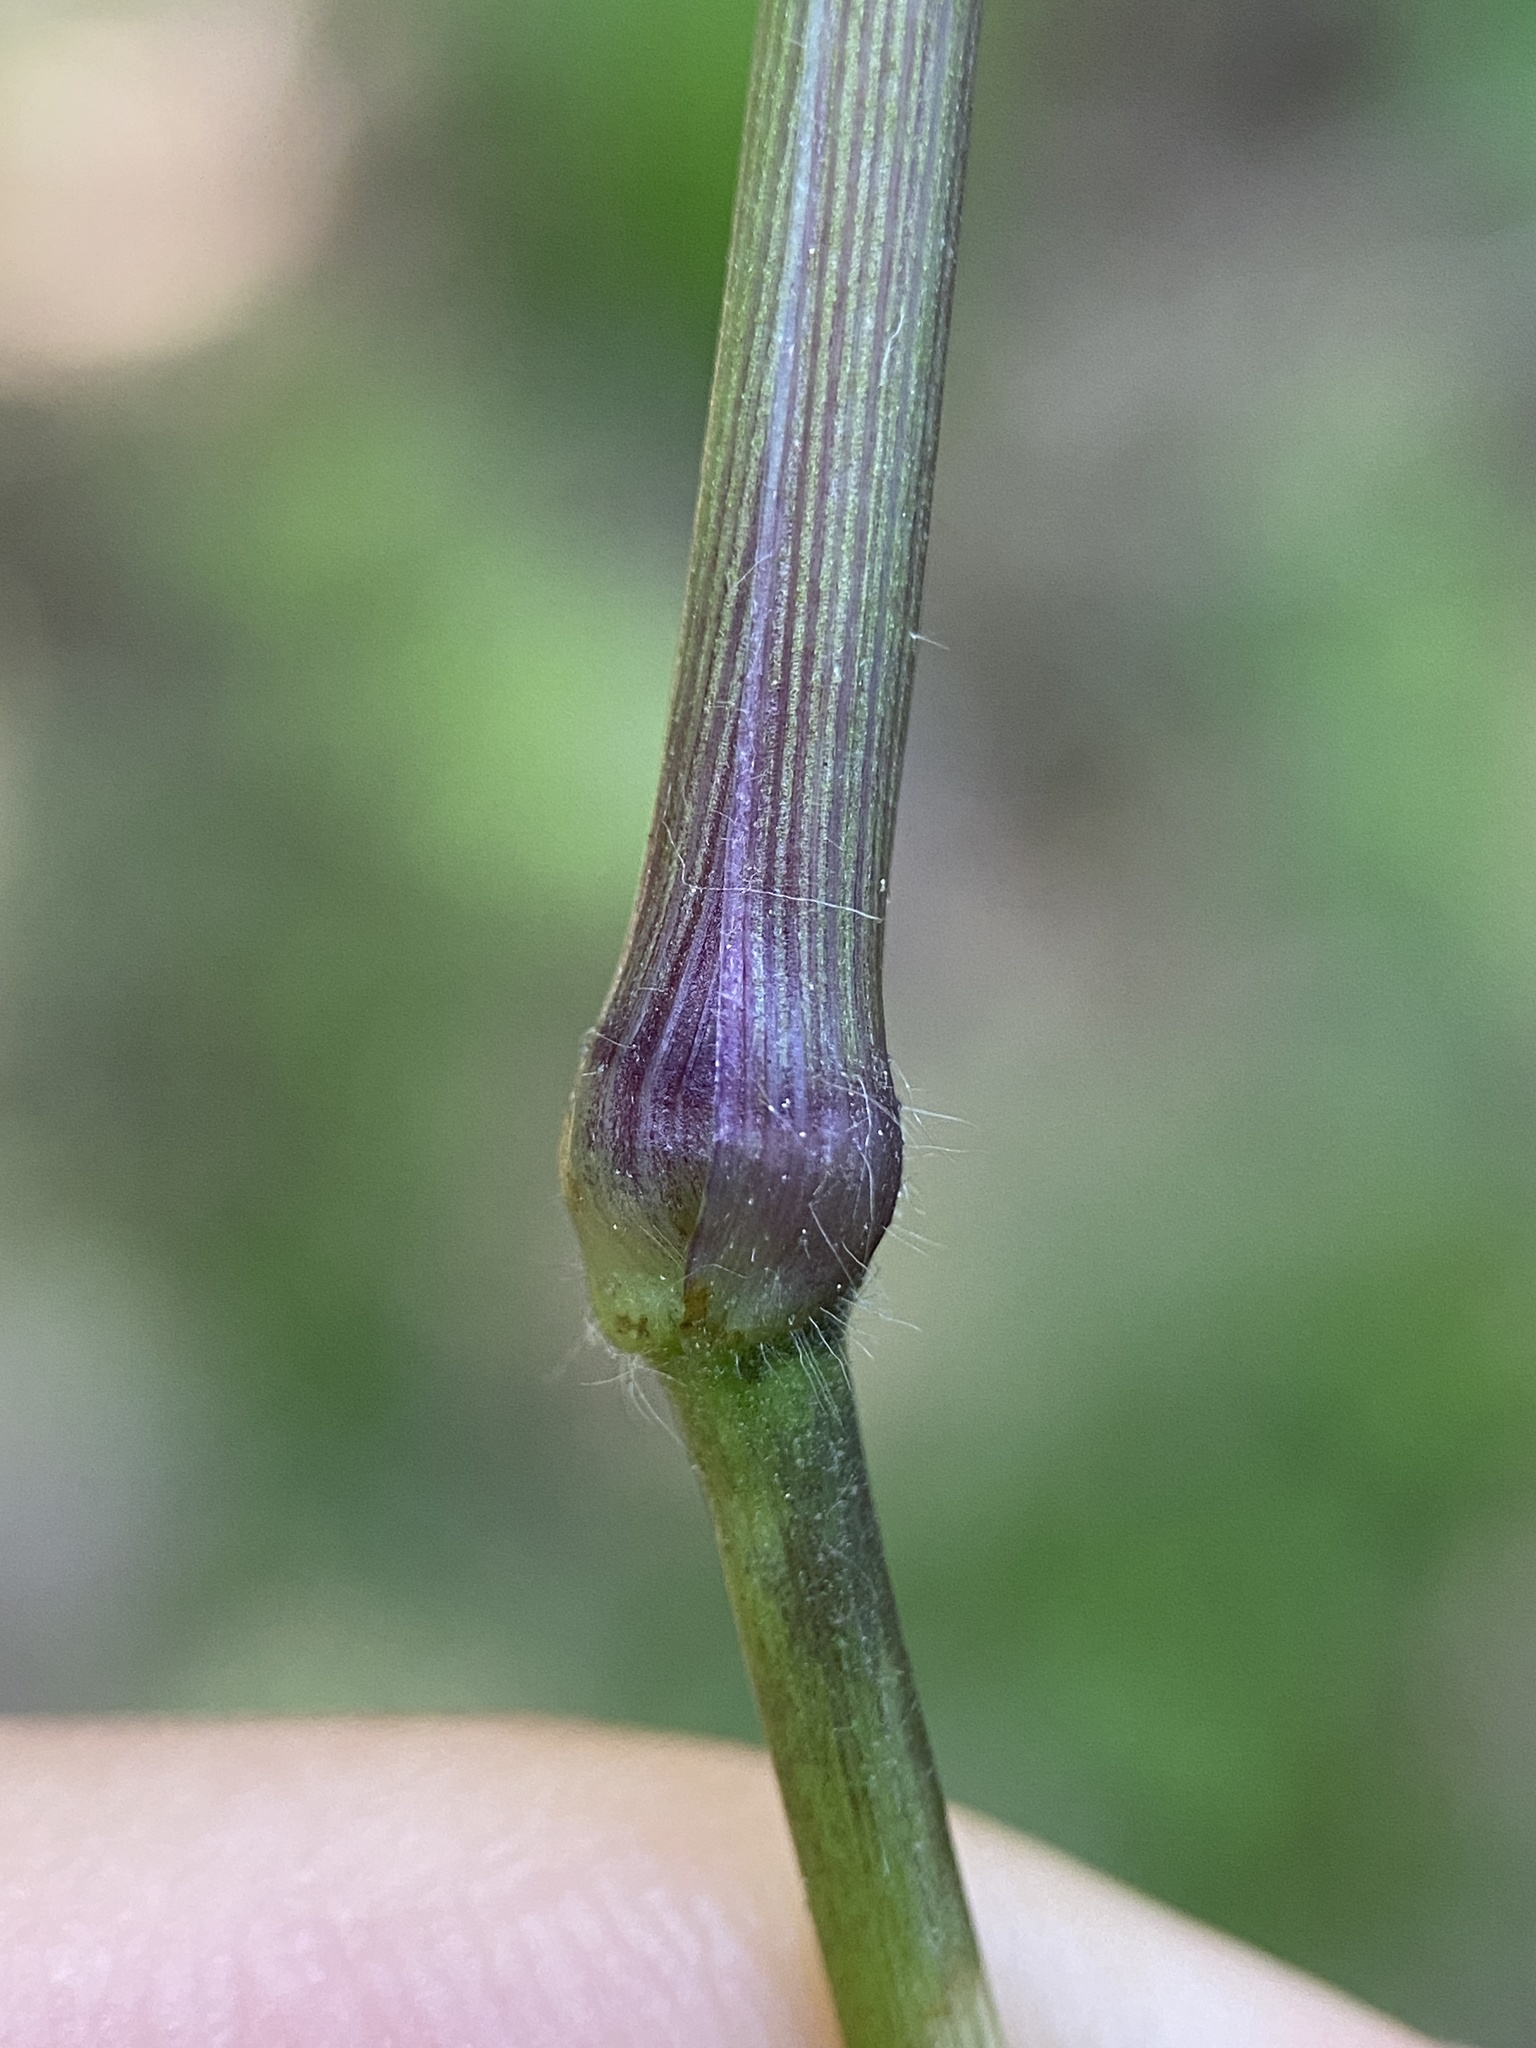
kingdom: Plantae
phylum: Tracheophyta
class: Liliopsida
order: Poales
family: Poaceae
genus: Dichanthelium
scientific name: Dichanthelium latifolium
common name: Broad-leaved panicgrass
